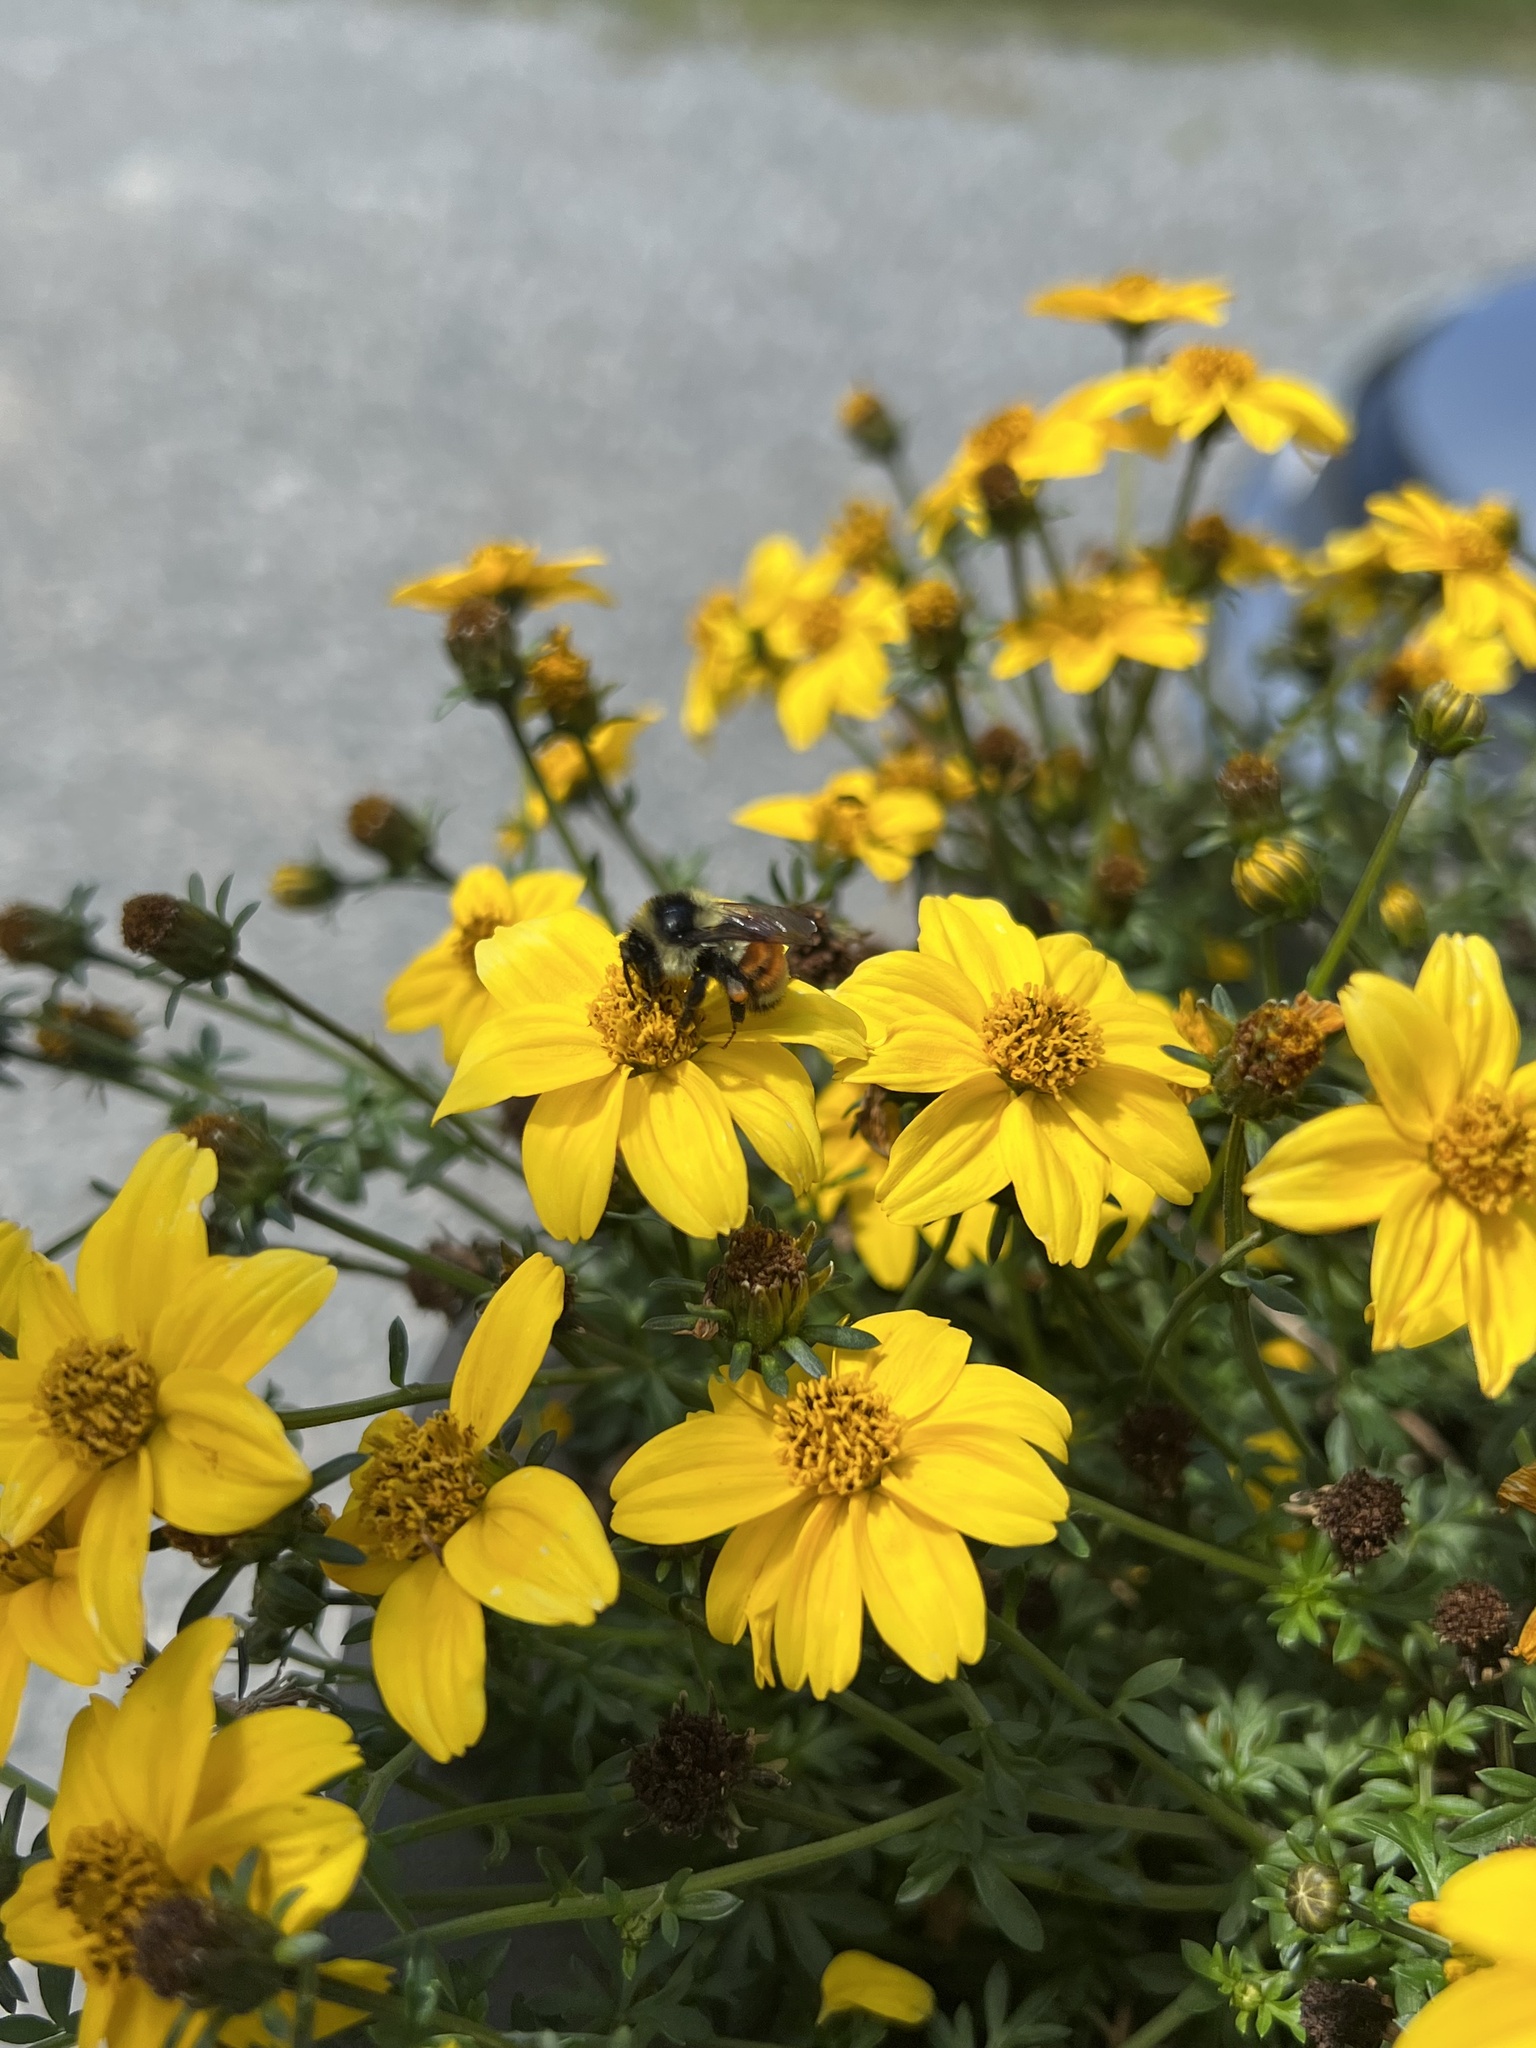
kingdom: Animalia
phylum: Arthropoda
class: Insecta
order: Hymenoptera
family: Apidae
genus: Bombus
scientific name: Bombus ternarius
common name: Tri-colored bumble bee
